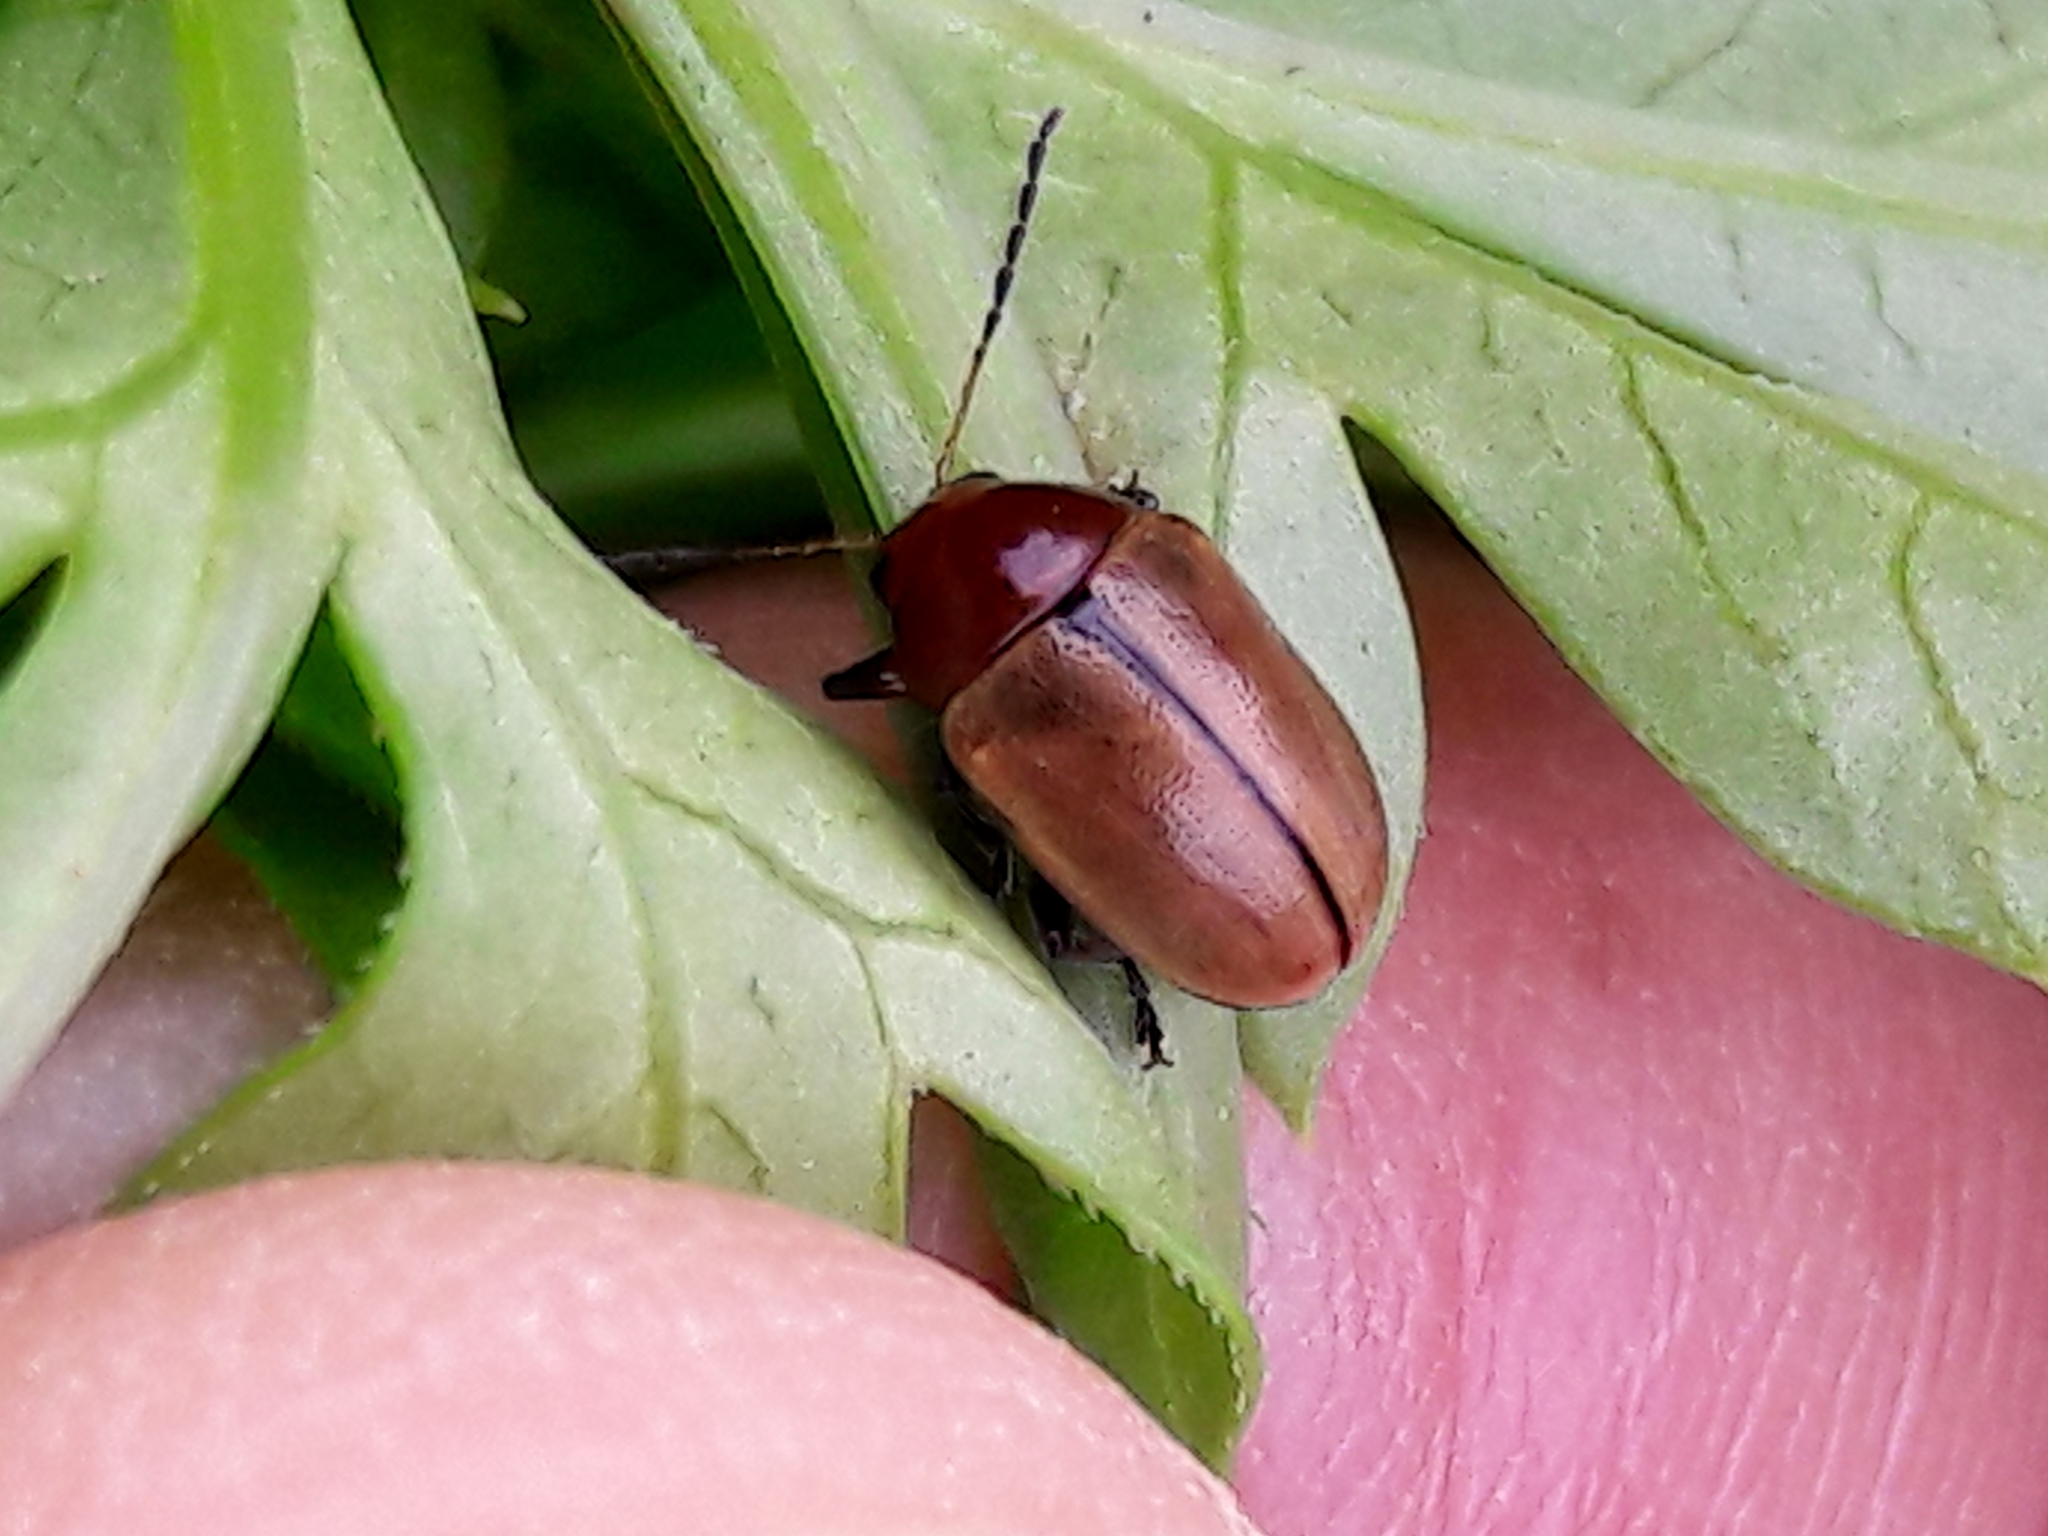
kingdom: Animalia
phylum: Arthropoda
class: Insecta
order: Coleoptera
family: Chrysomelidae
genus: Costalimaita
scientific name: Costalimaita
